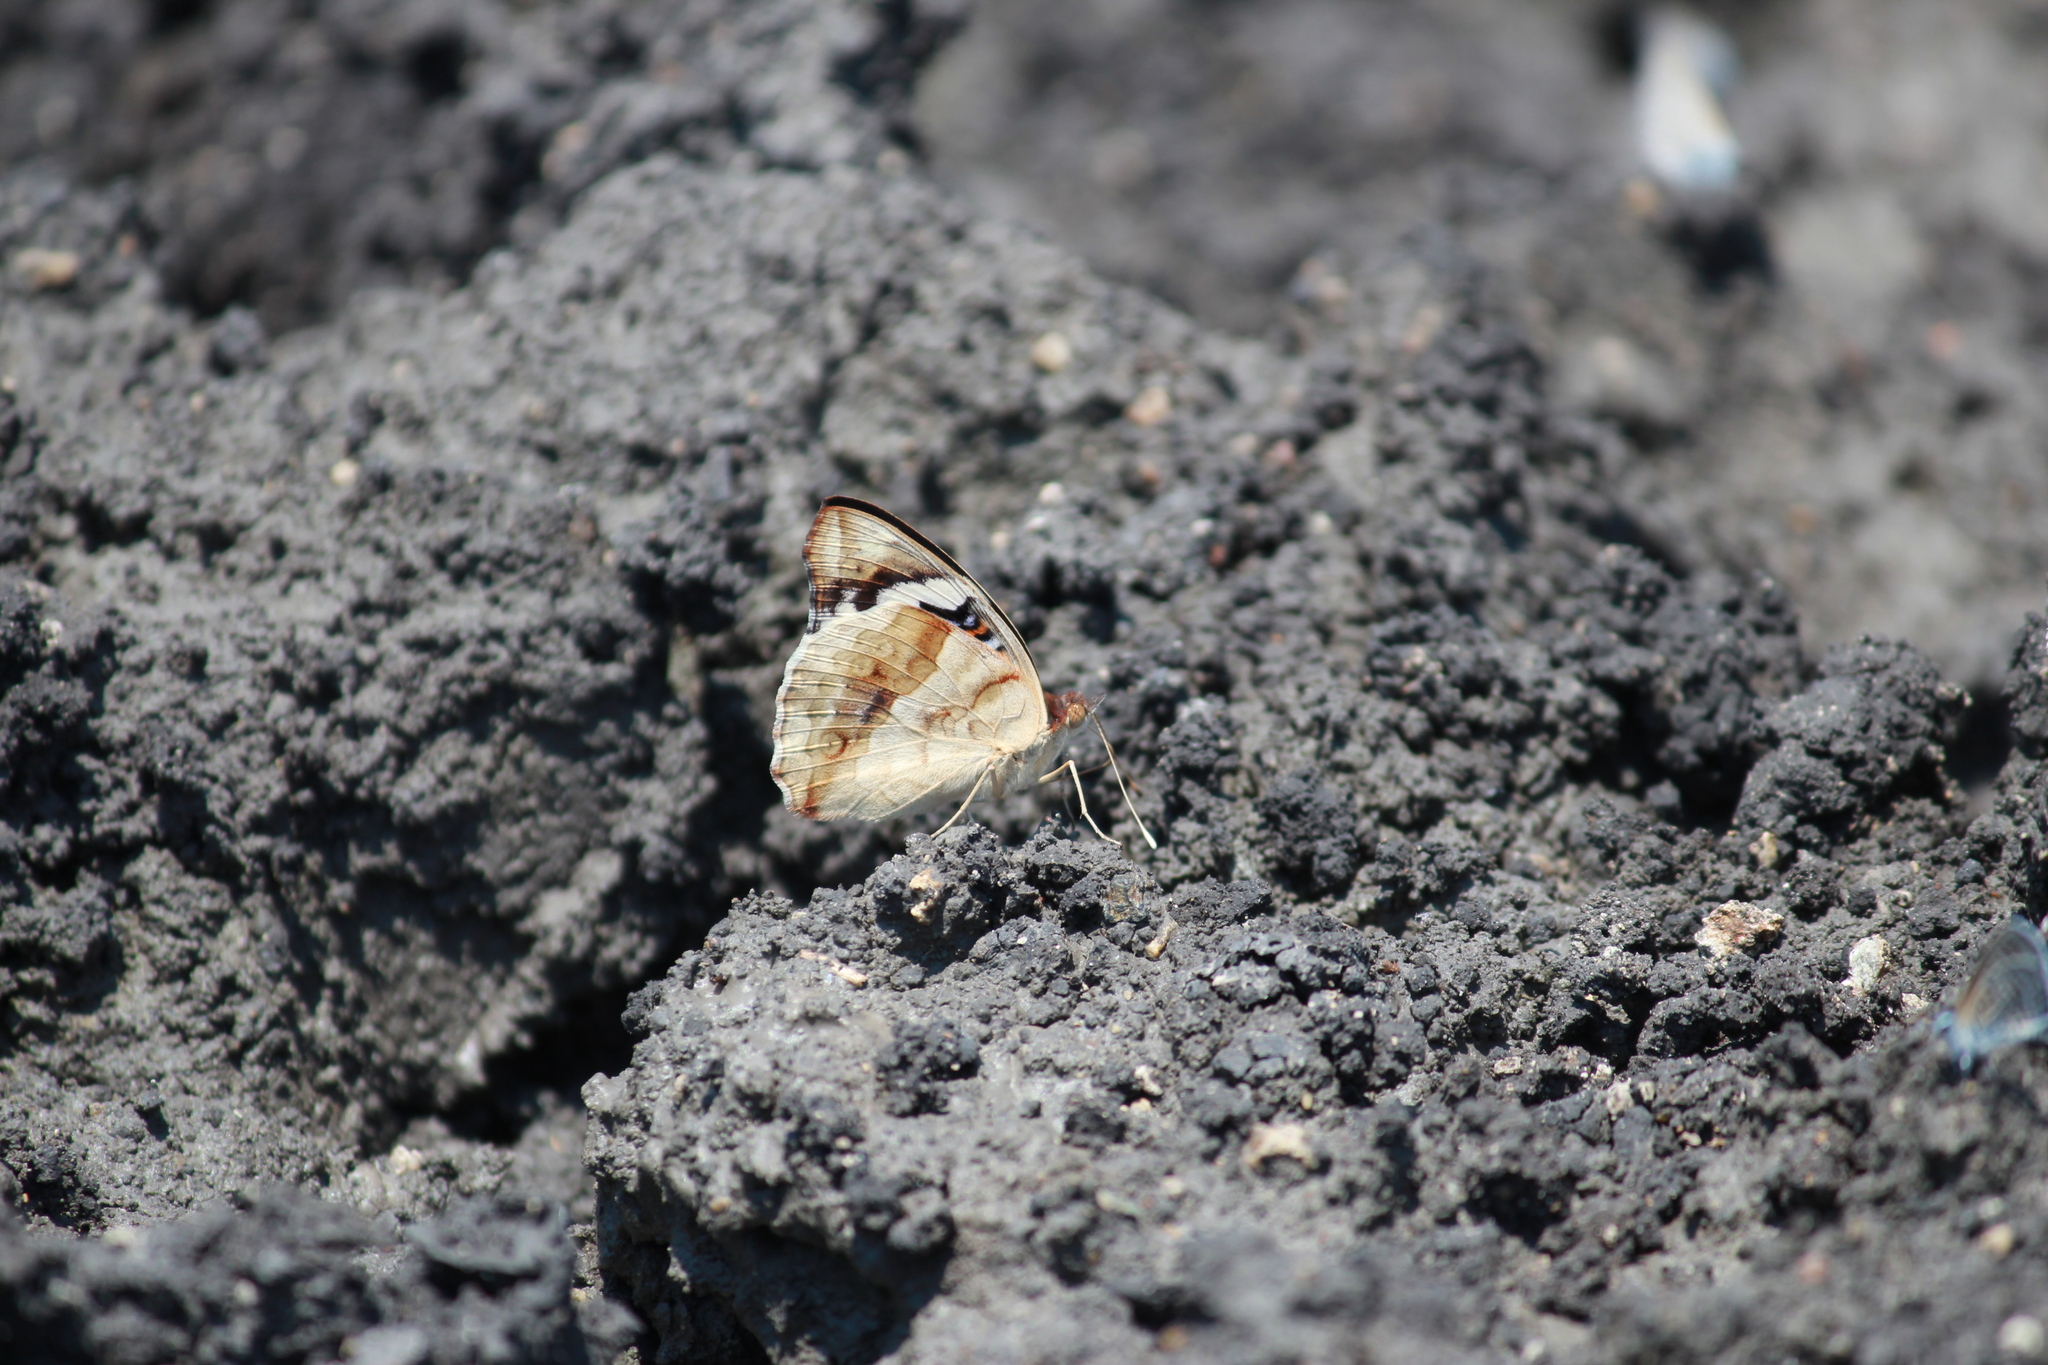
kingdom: Animalia
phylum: Arthropoda
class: Insecta
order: Lepidoptera
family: Nymphalidae
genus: Junonia
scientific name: Junonia oenone
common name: Dark blue pansy
